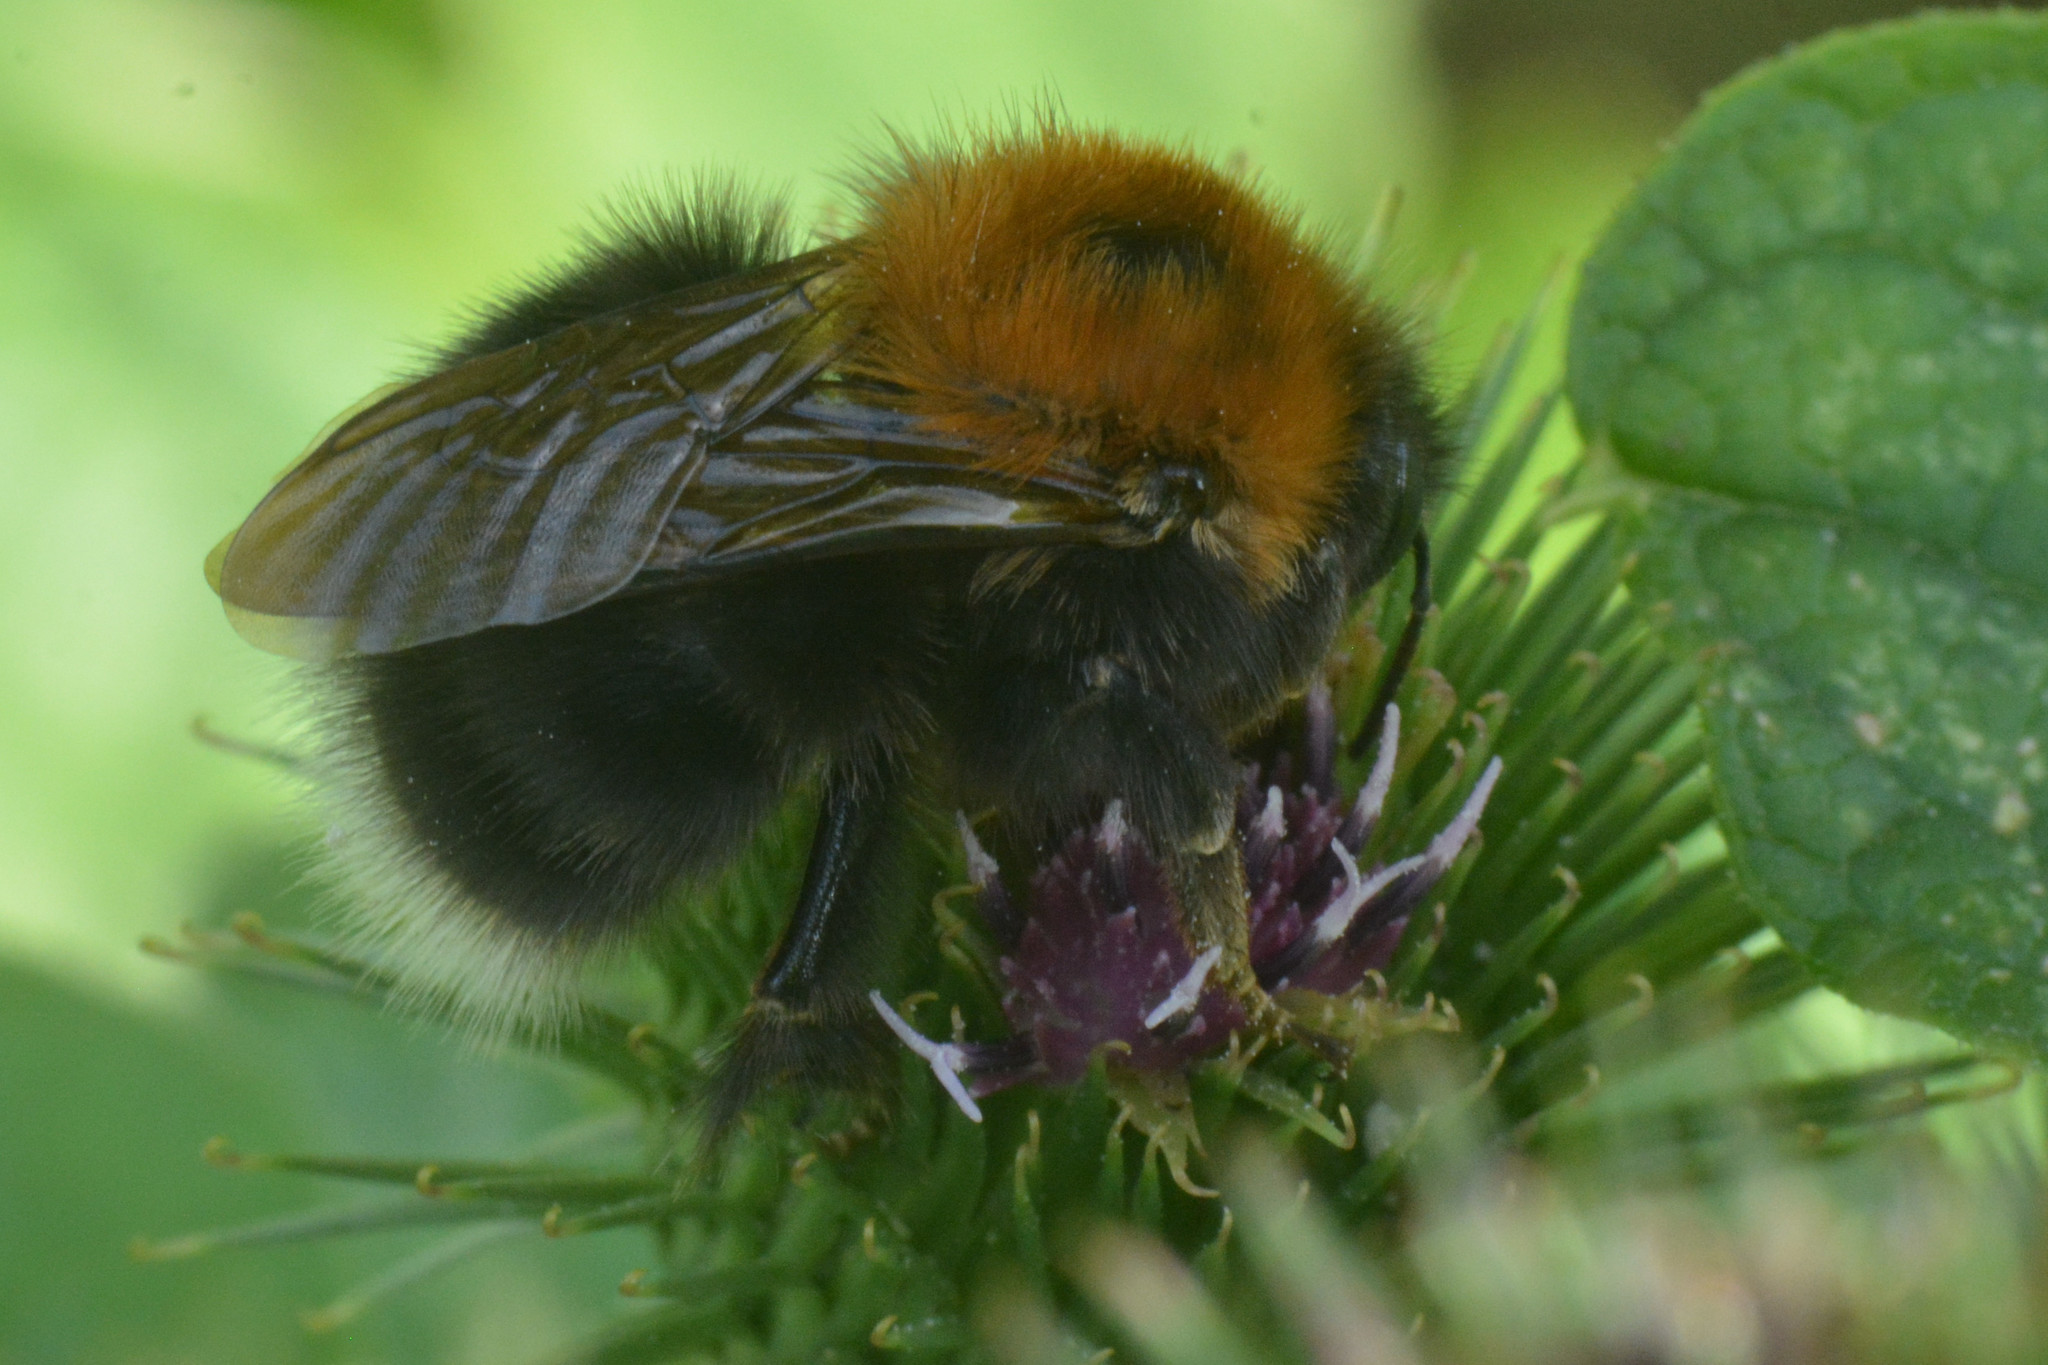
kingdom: Animalia
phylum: Arthropoda
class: Insecta
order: Hymenoptera
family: Apidae
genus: Bombus
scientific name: Bombus hypnorum
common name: New garden bumblebee
